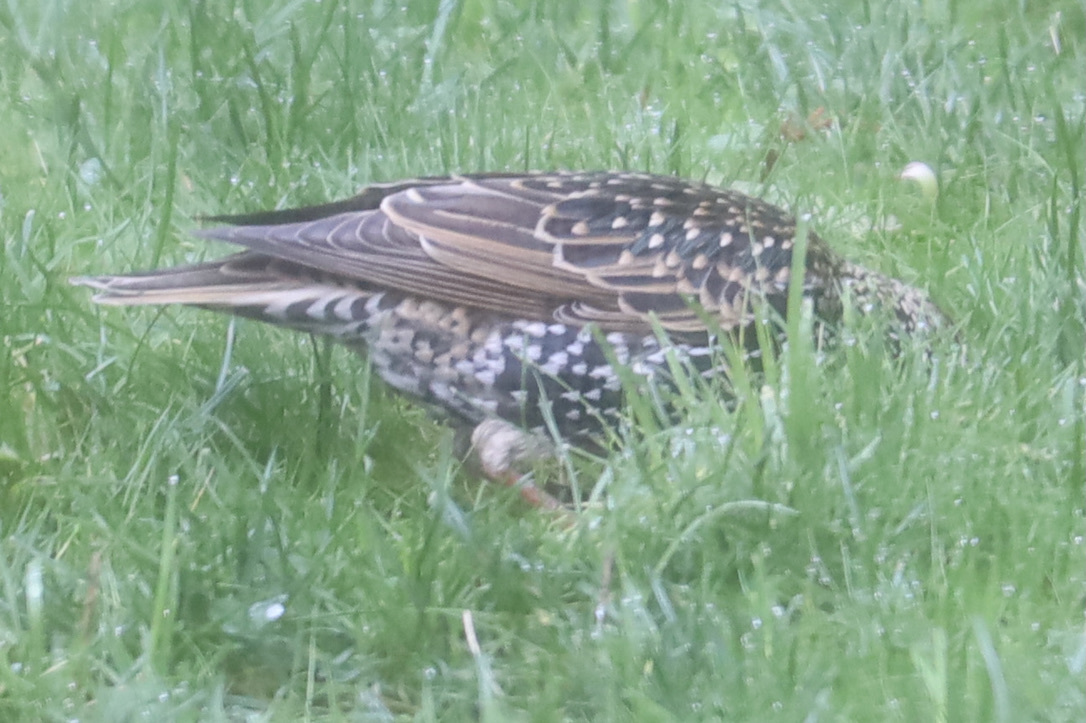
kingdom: Animalia
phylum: Chordata
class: Aves
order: Passeriformes
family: Sturnidae
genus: Sturnus
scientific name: Sturnus vulgaris
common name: Common starling
